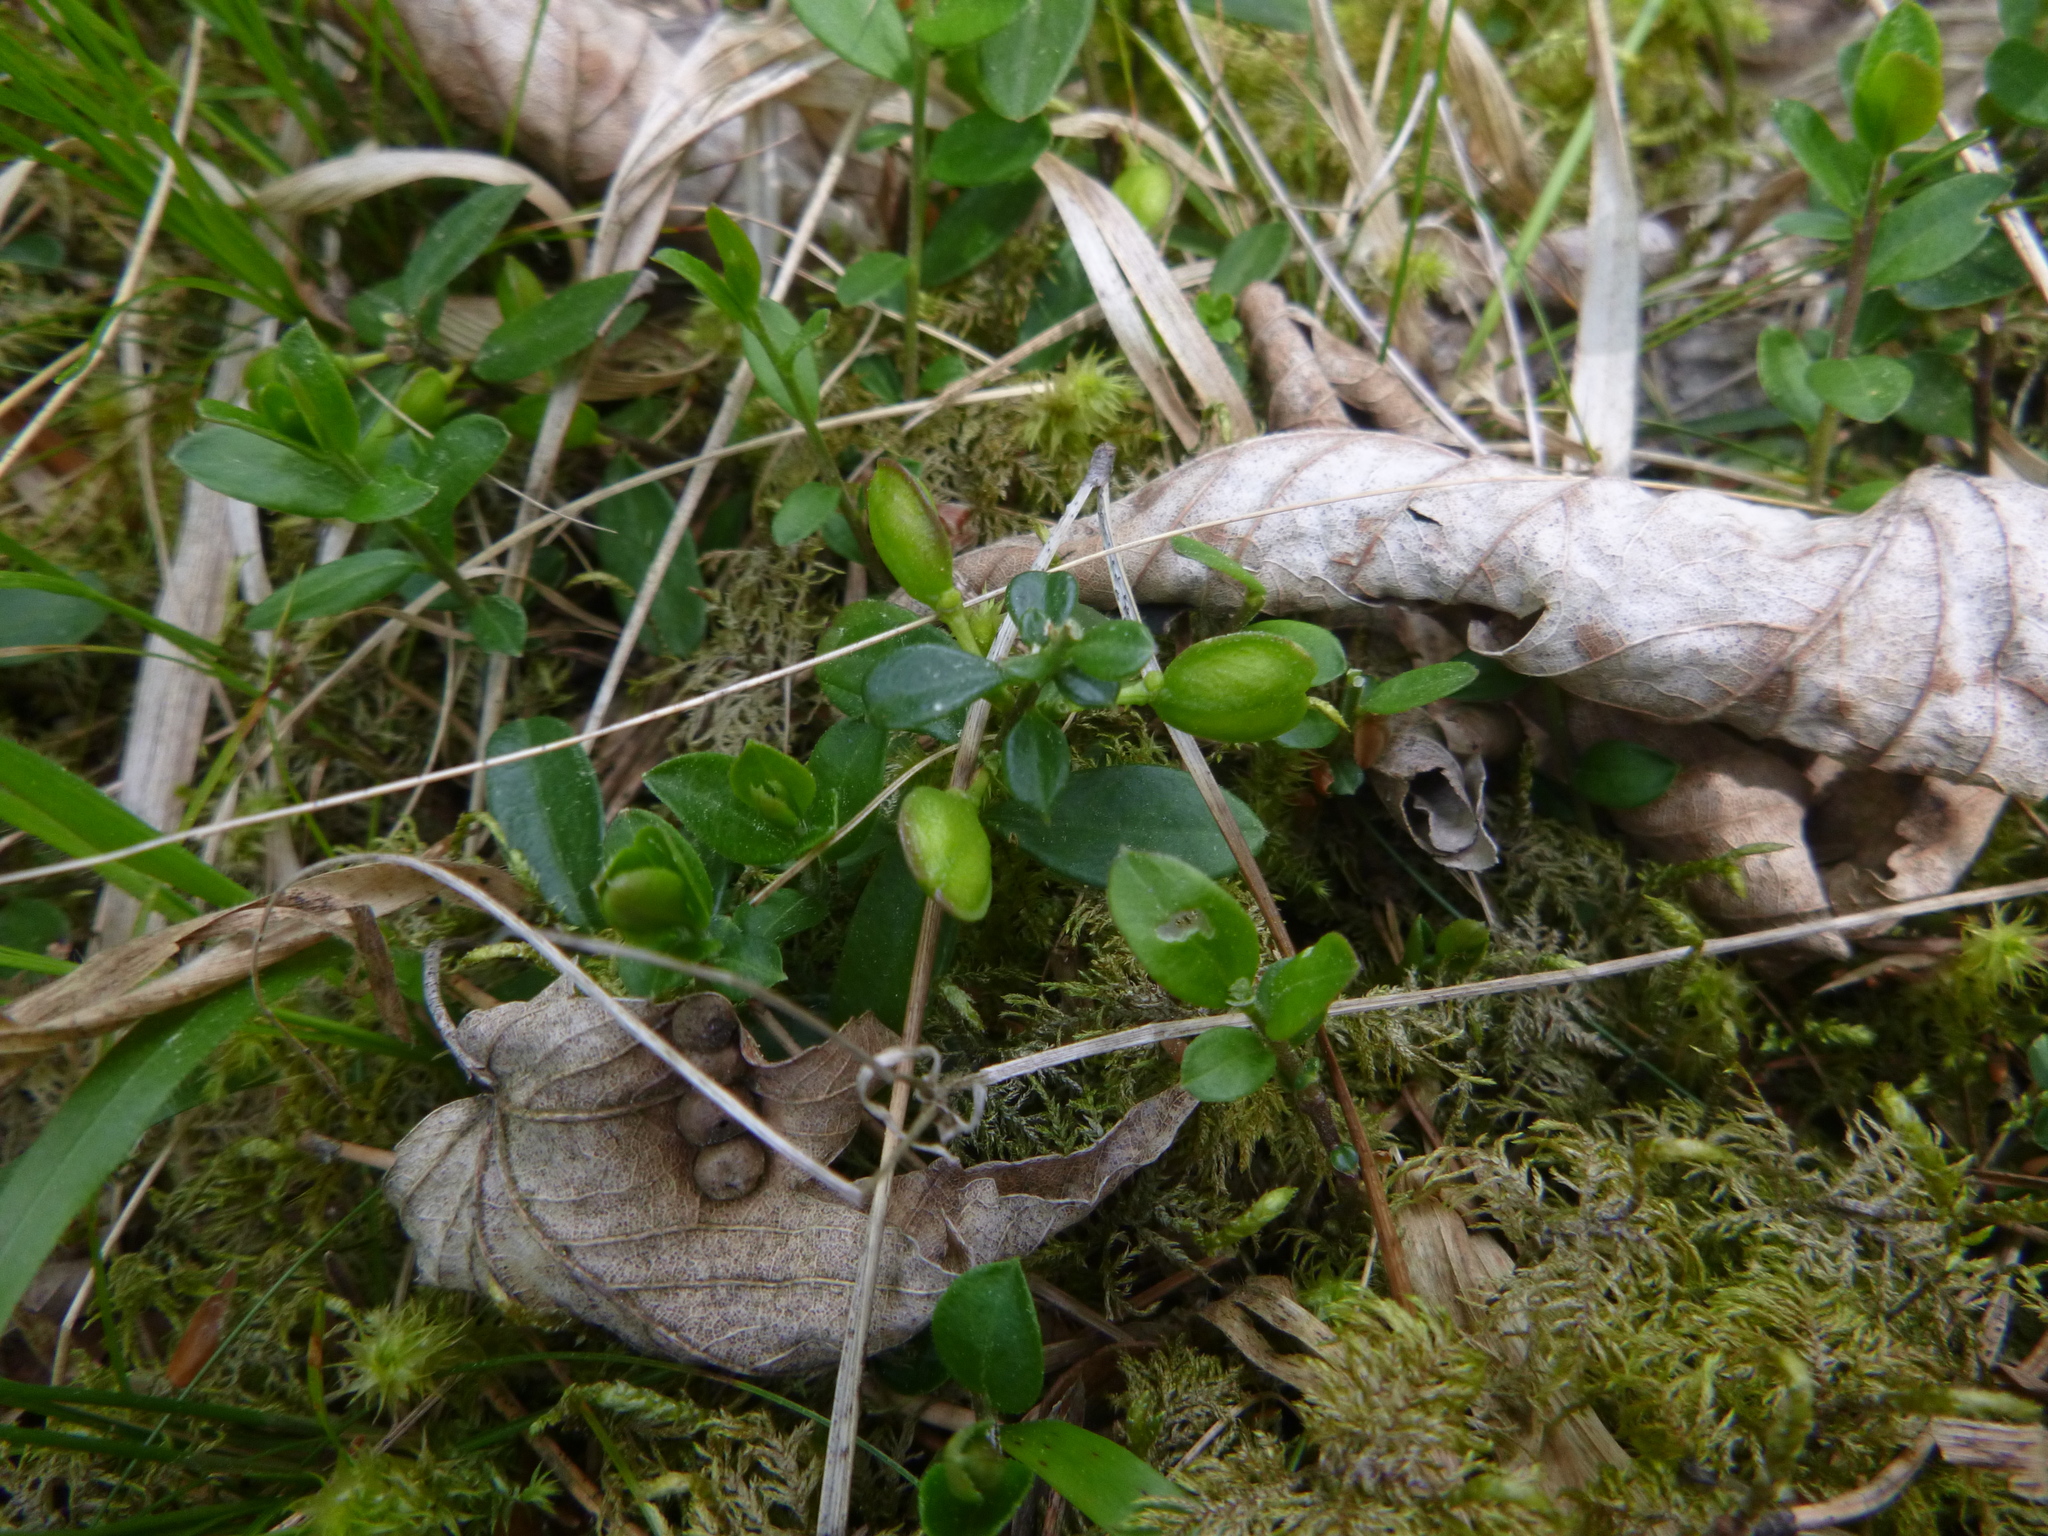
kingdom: Plantae
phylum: Tracheophyta
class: Magnoliopsida
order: Fabales
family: Polygalaceae
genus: Polygaloides
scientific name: Polygaloides chamaebuxus
